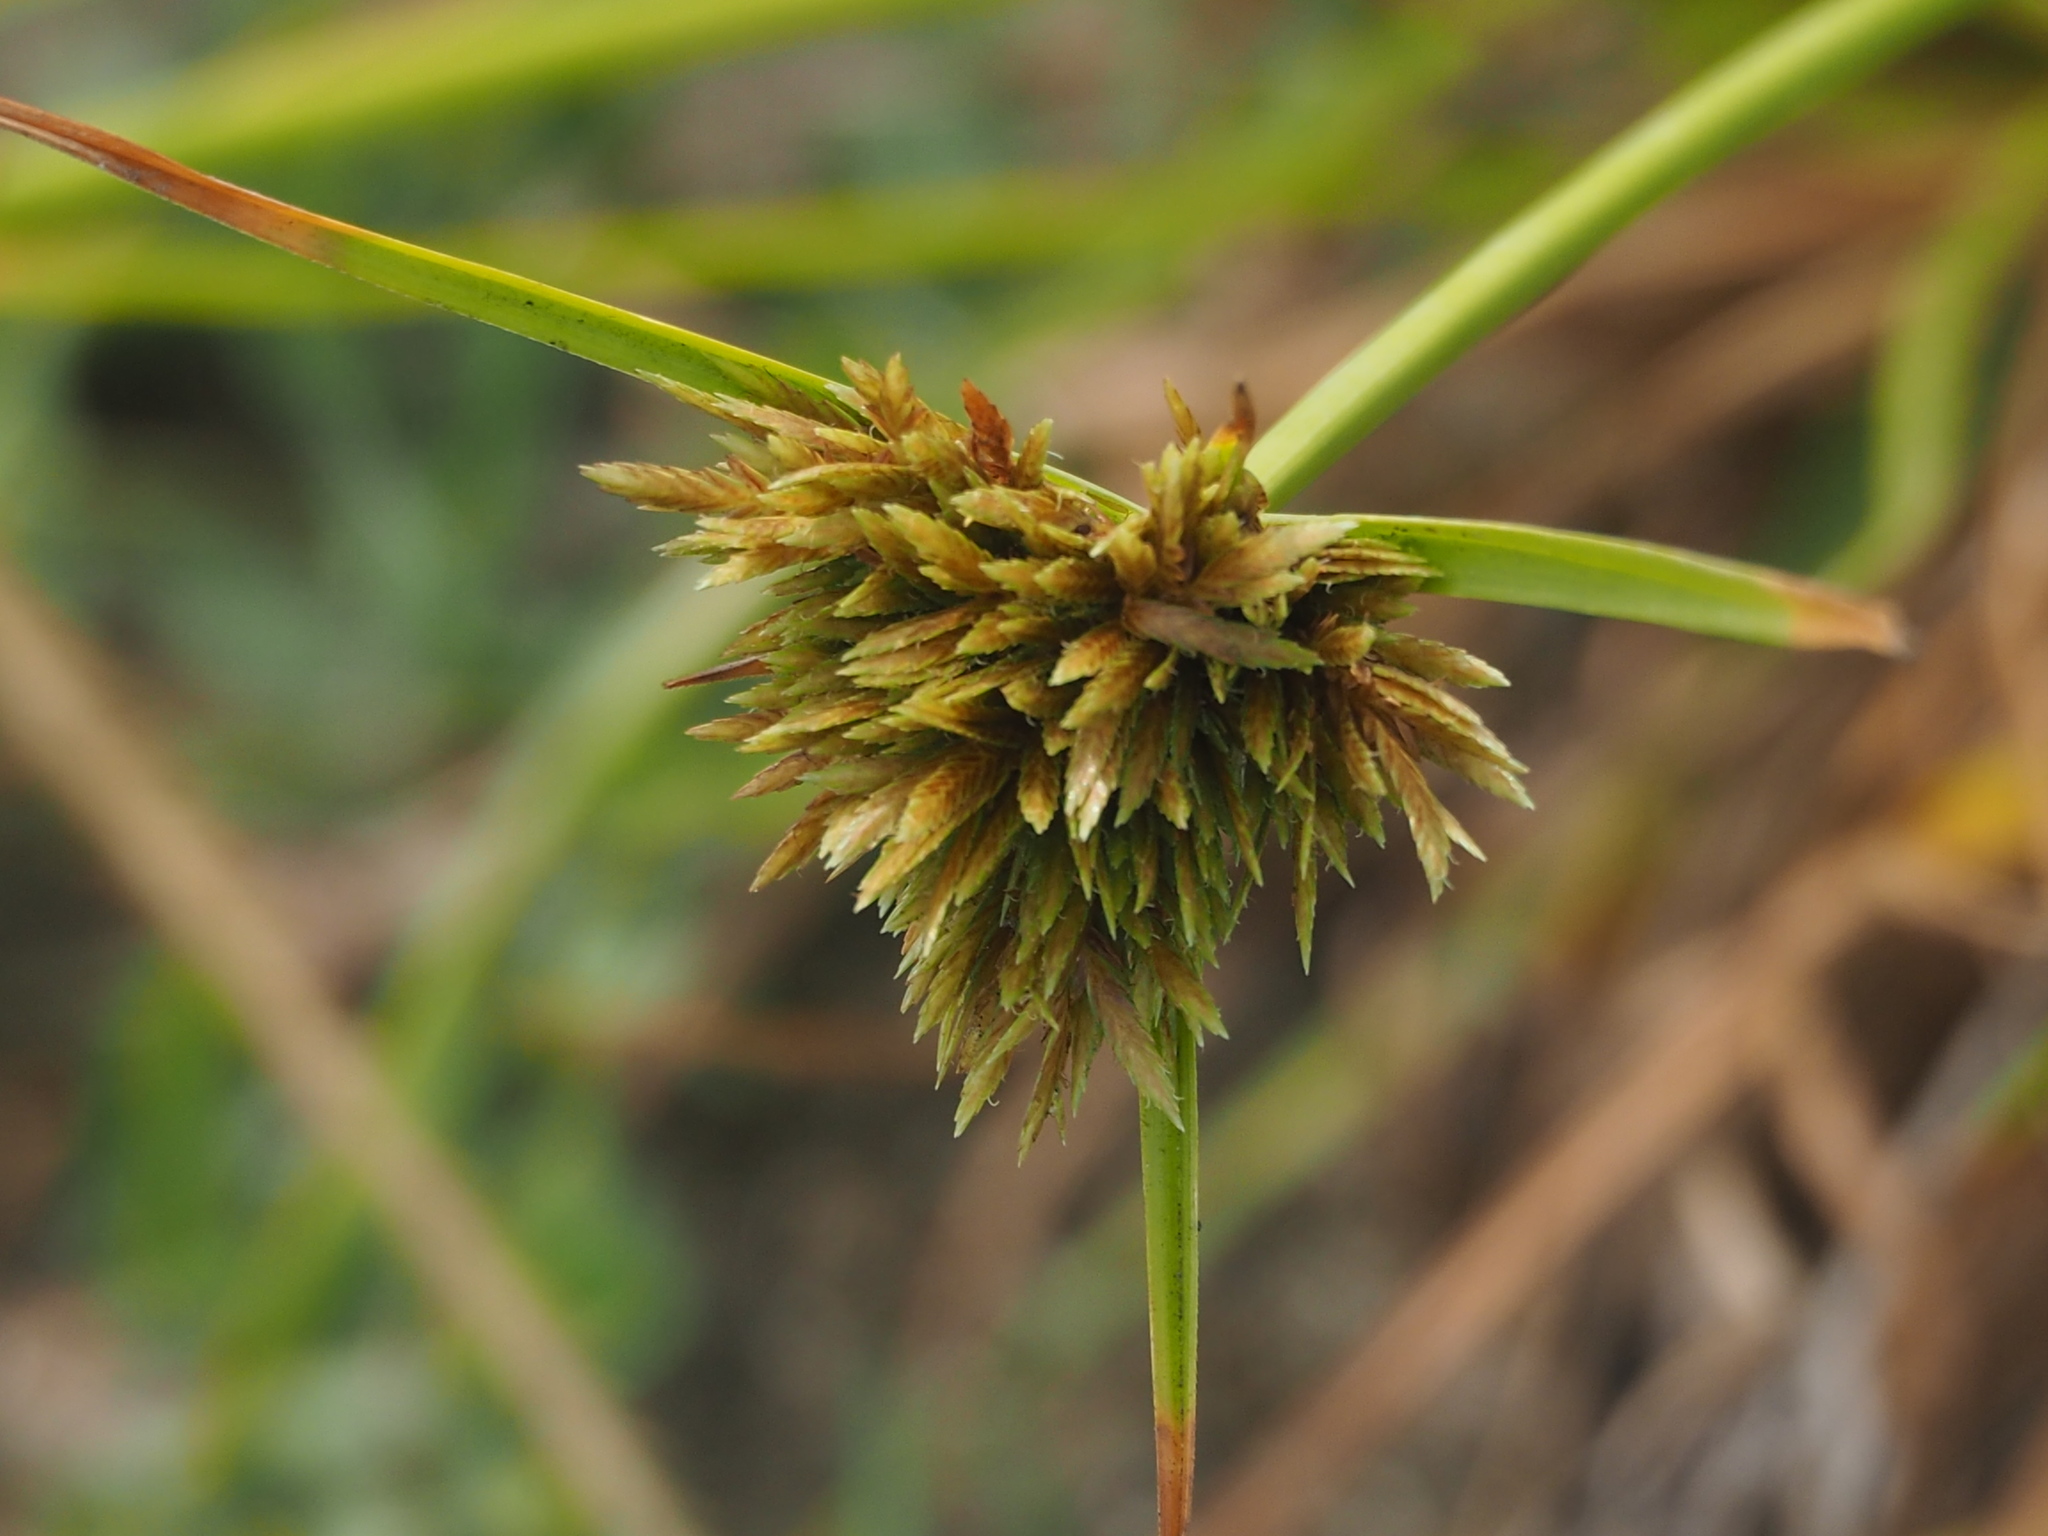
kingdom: Plantae
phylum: Tracheophyta
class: Liliopsida
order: Poales
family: Cyperaceae
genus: Cyperus
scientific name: Cyperus polystachyos
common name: Bunchy flat sedge
